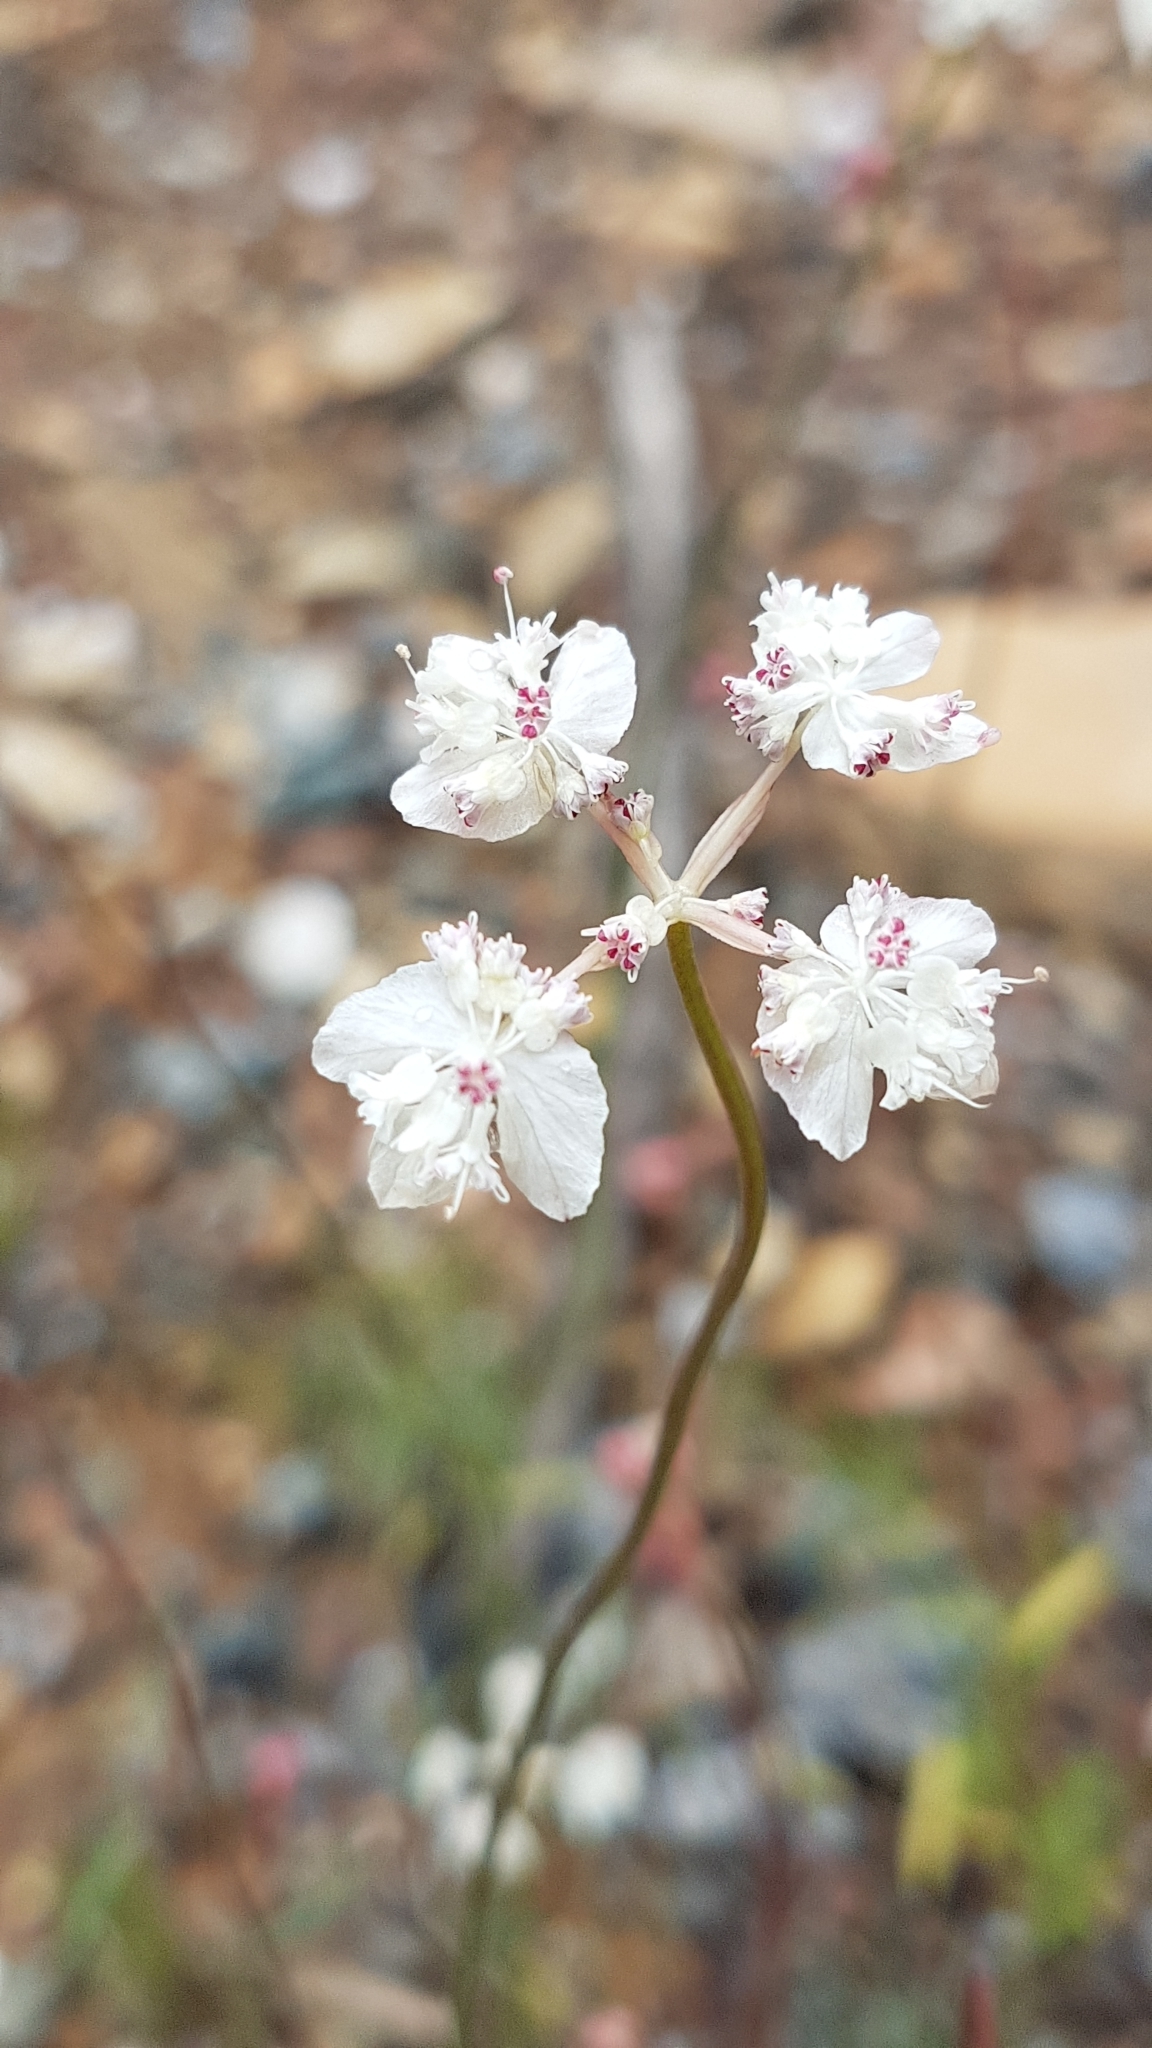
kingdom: Plantae
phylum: Tracheophyta
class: Magnoliopsida
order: Apiales
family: Apiaceae
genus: Xanthosia
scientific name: Xanthosia atkinsoniana
